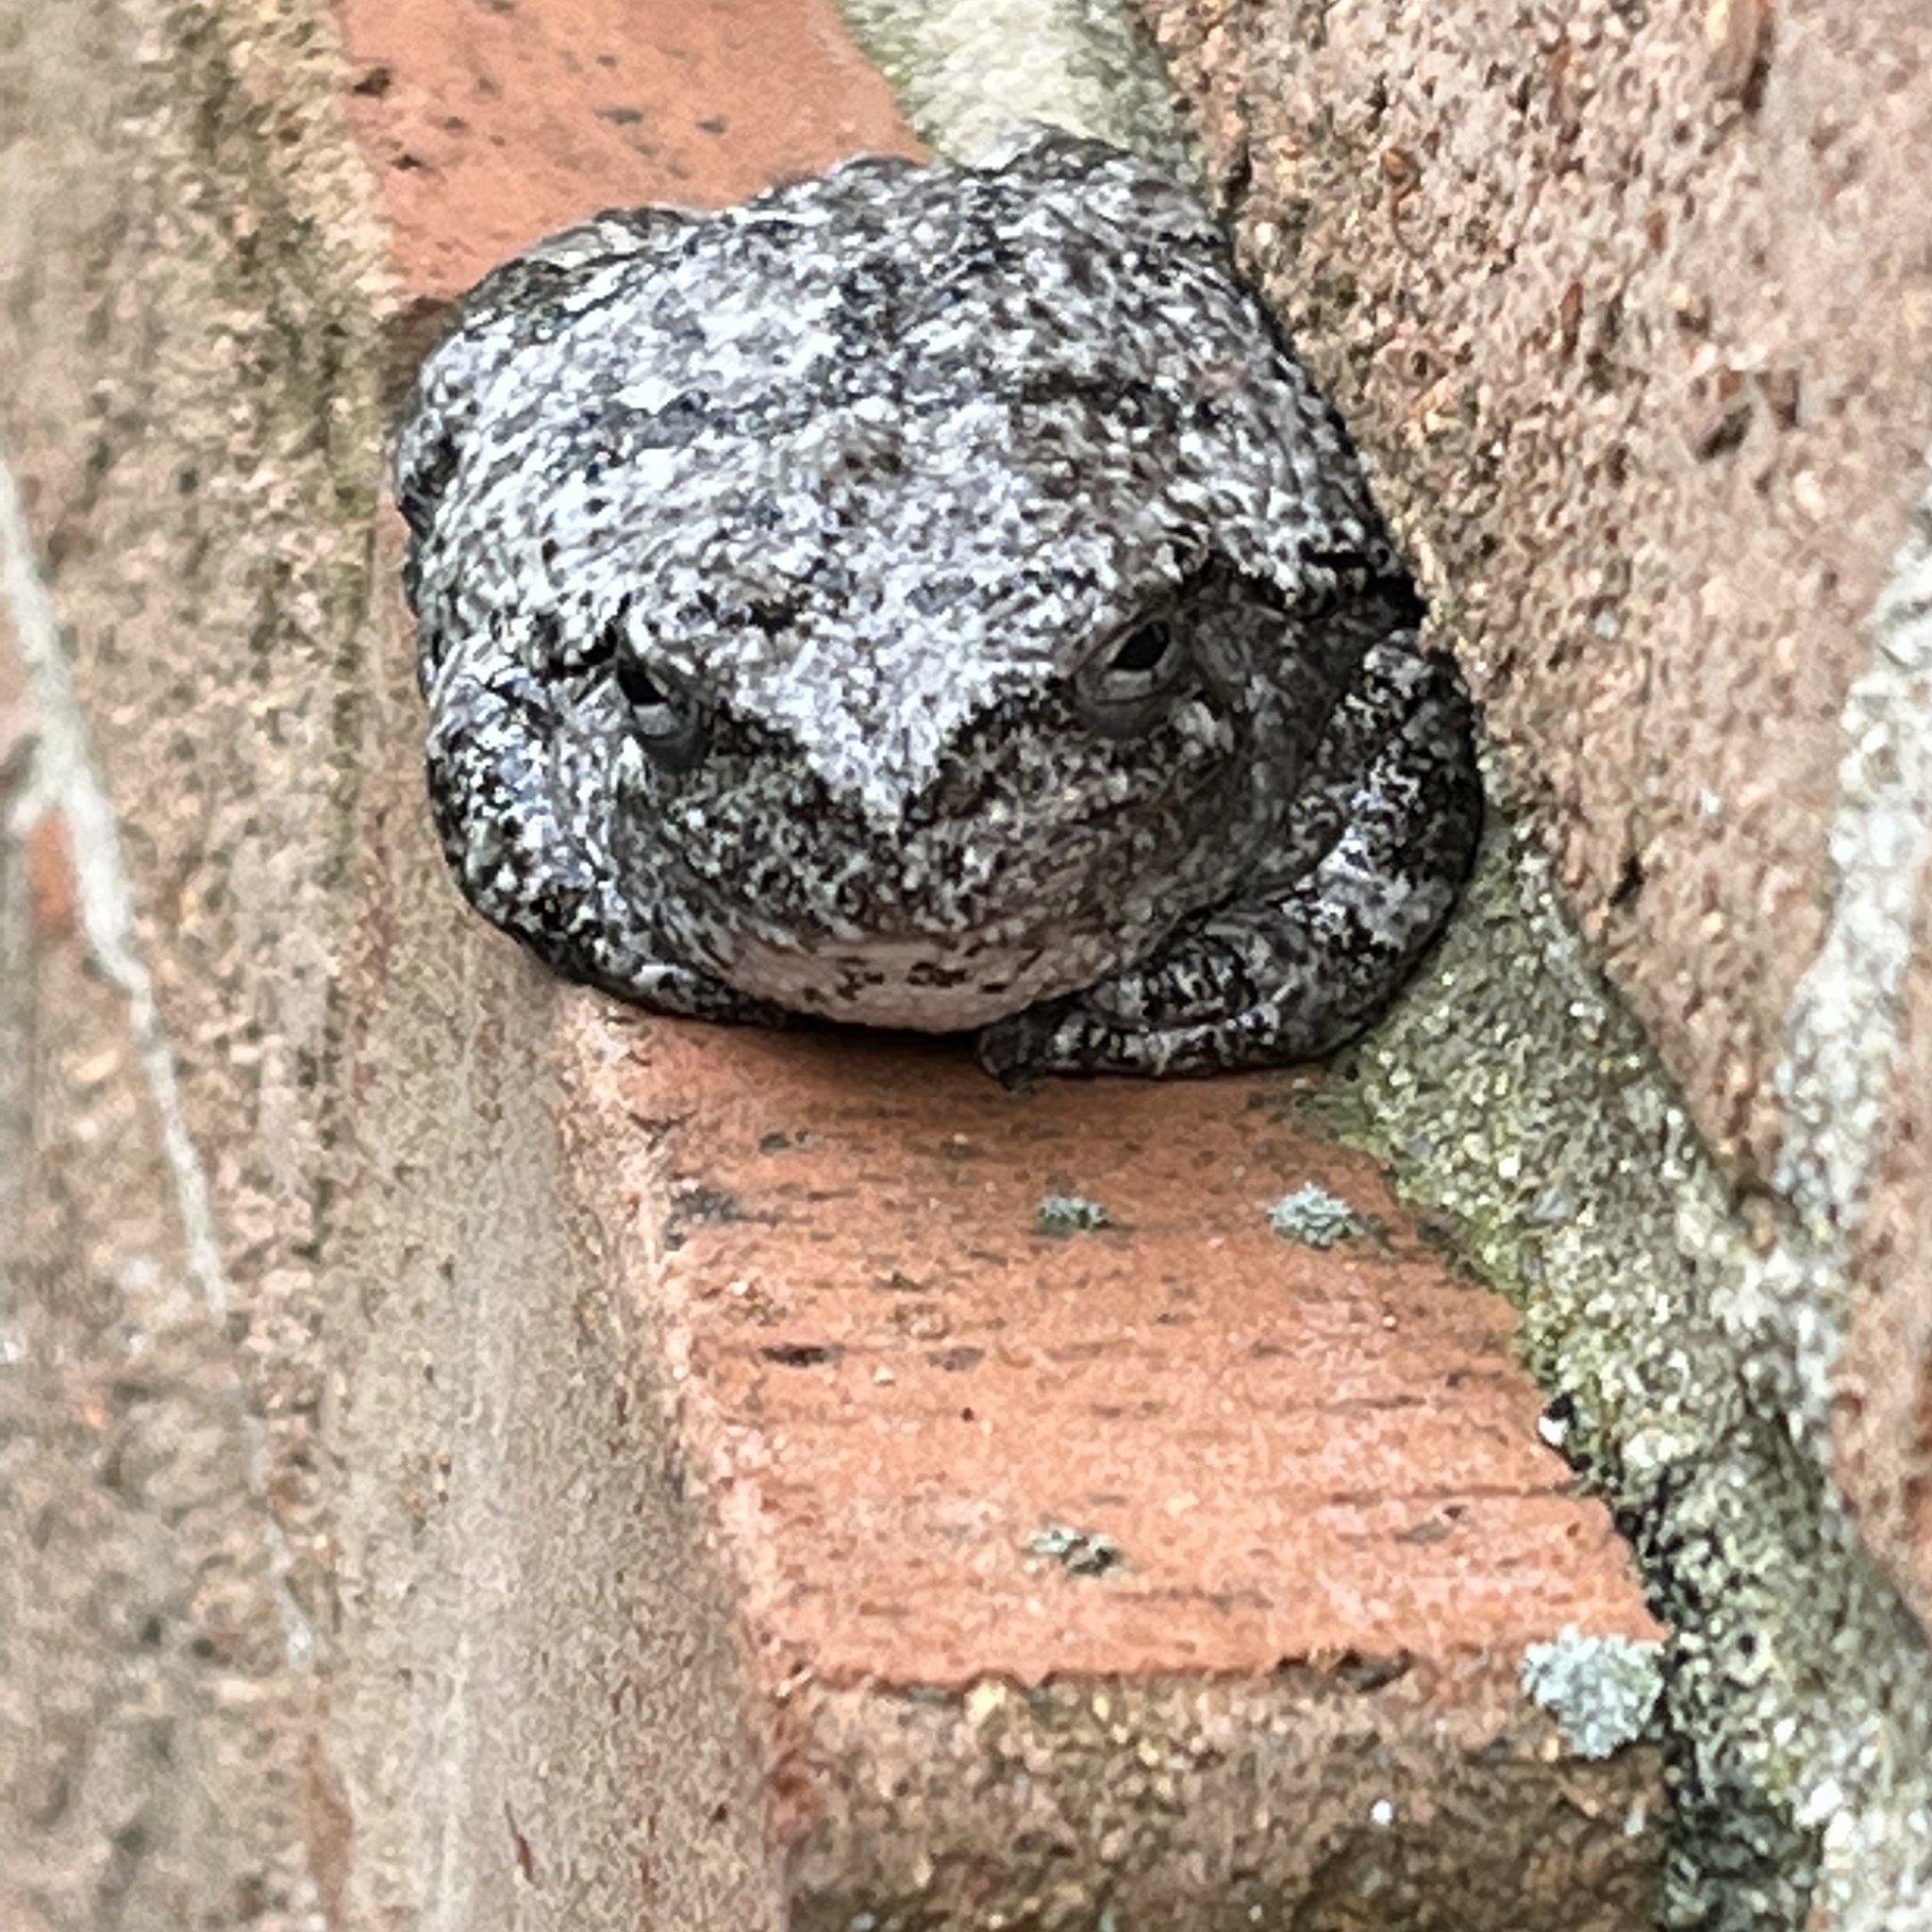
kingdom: Animalia
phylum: Chordata
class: Amphibia
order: Anura
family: Hylidae
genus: Dryophytes
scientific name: Dryophytes versicolor
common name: Gray treefrog
